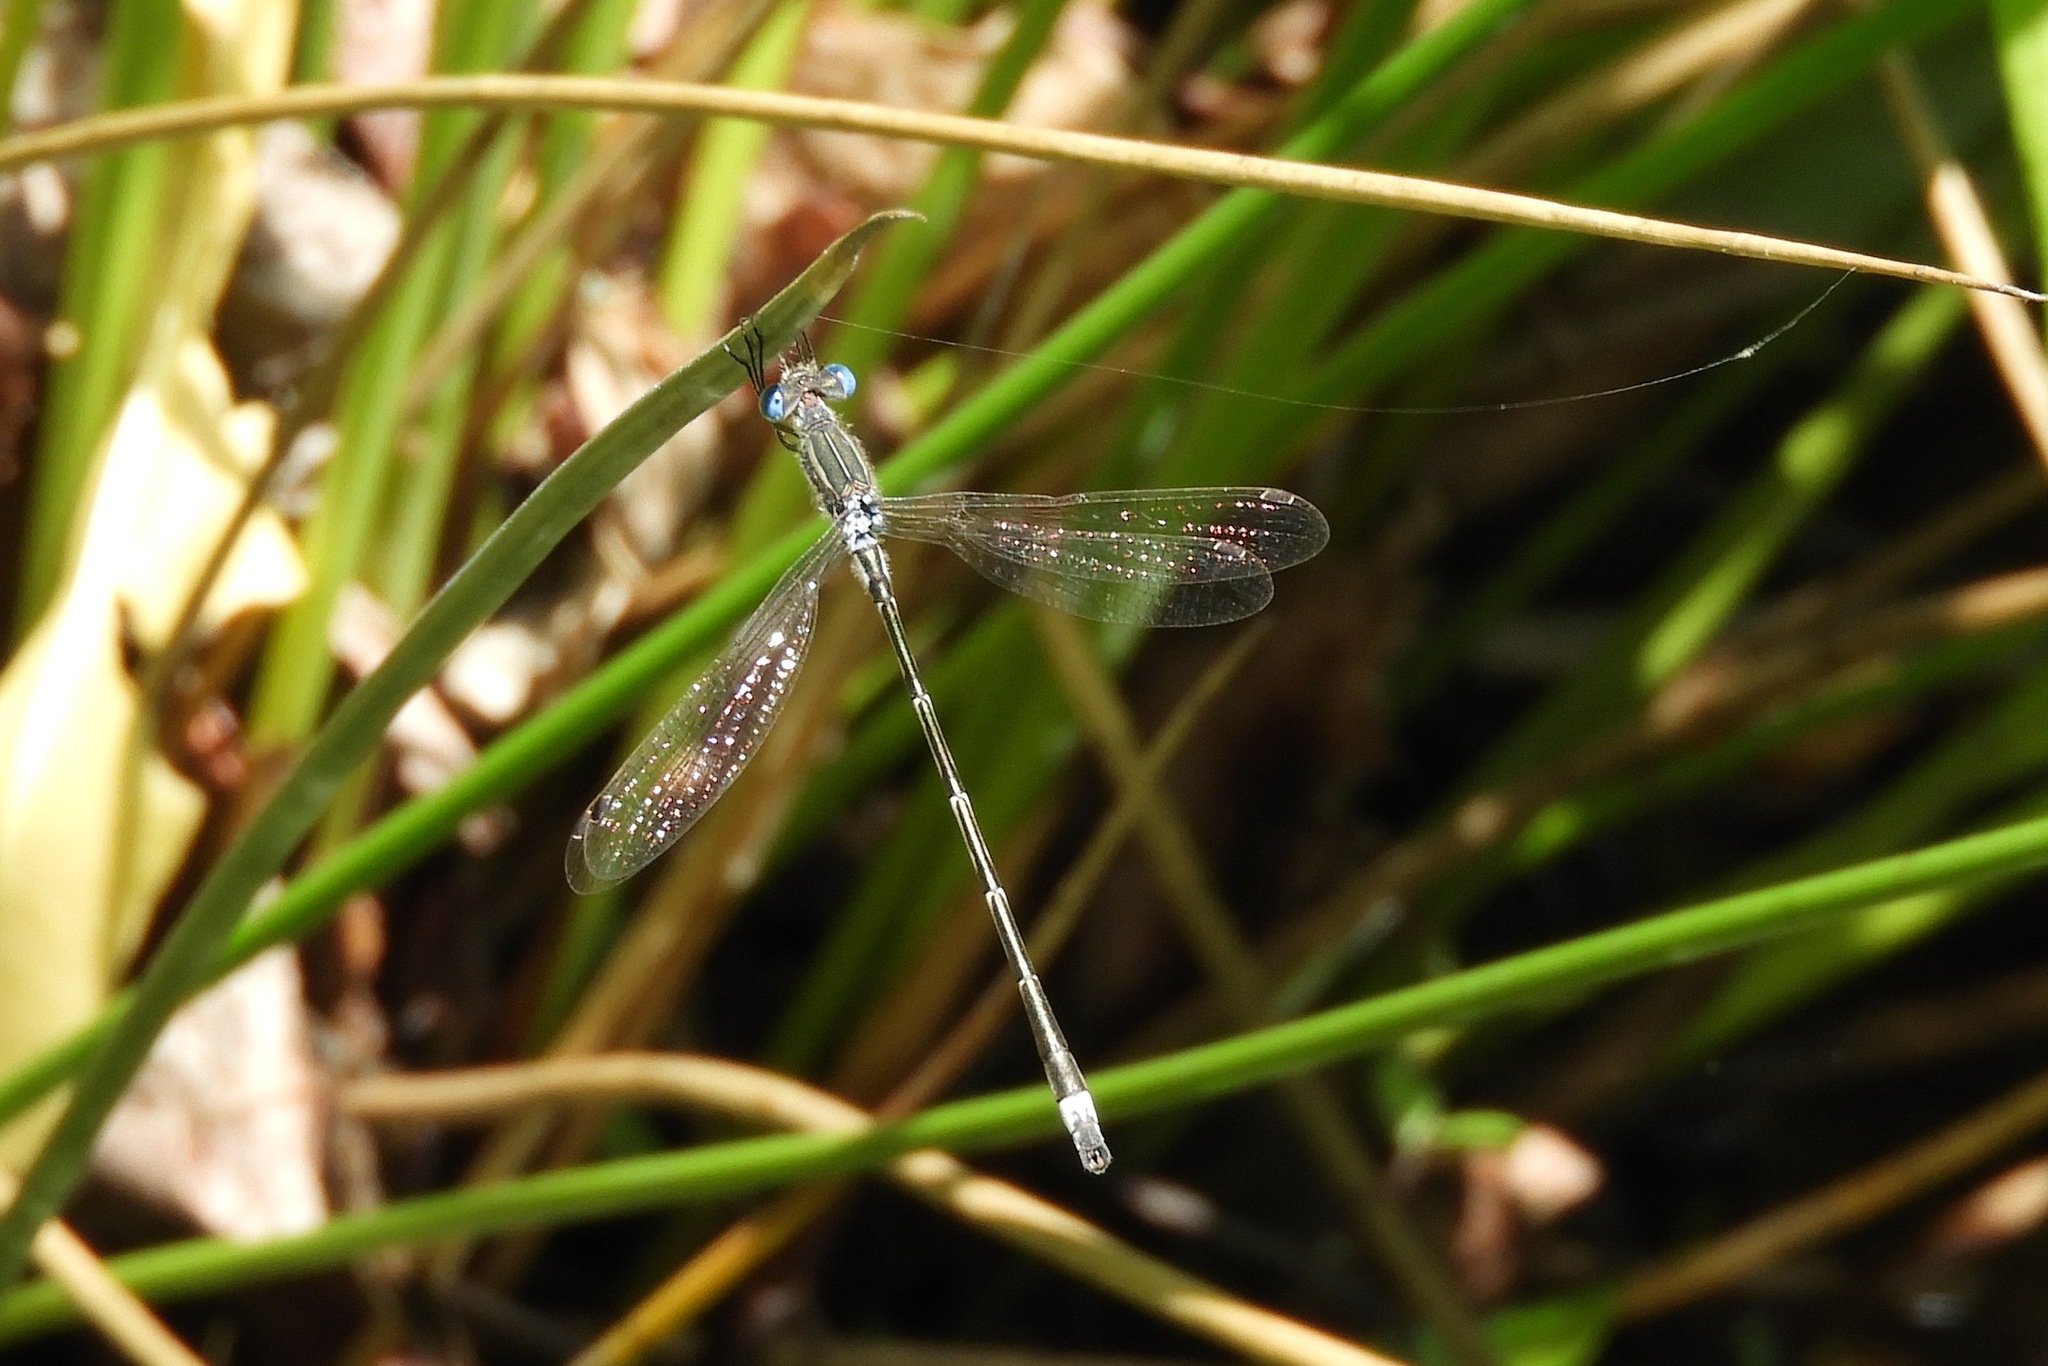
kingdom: Animalia
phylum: Arthropoda
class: Insecta
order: Odonata
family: Lestidae
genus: Lestes
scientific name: Lestes
